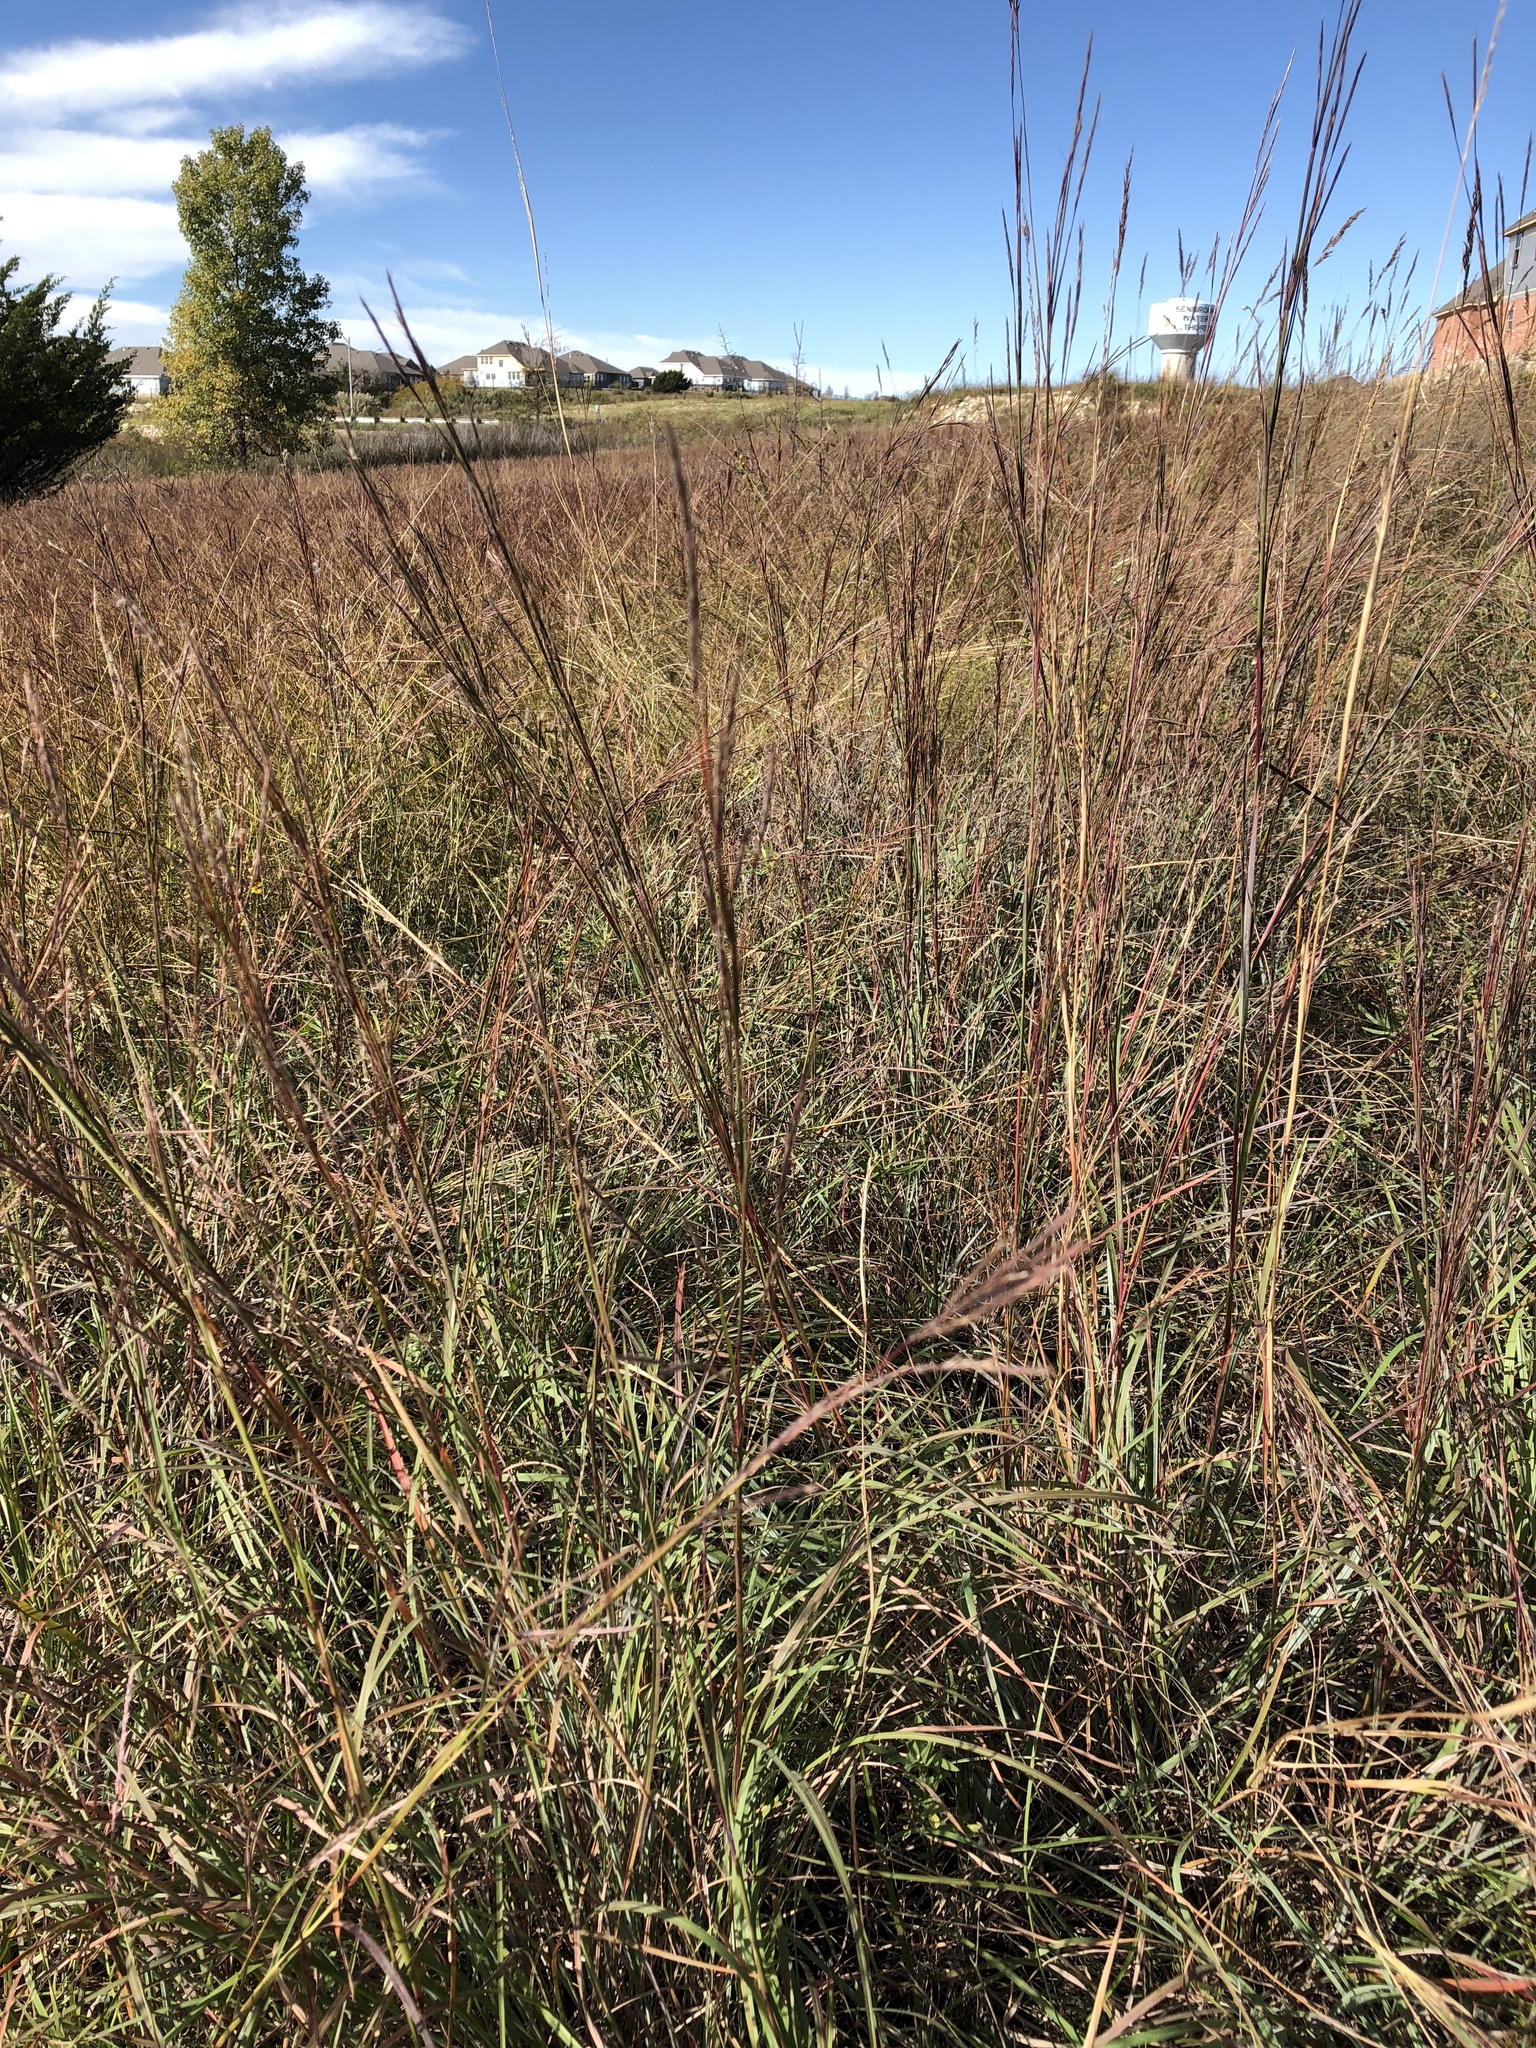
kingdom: Plantae
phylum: Tracheophyta
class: Liliopsida
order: Poales
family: Poaceae
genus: Schizachyrium
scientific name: Schizachyrium scoparium
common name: Little bluestem
